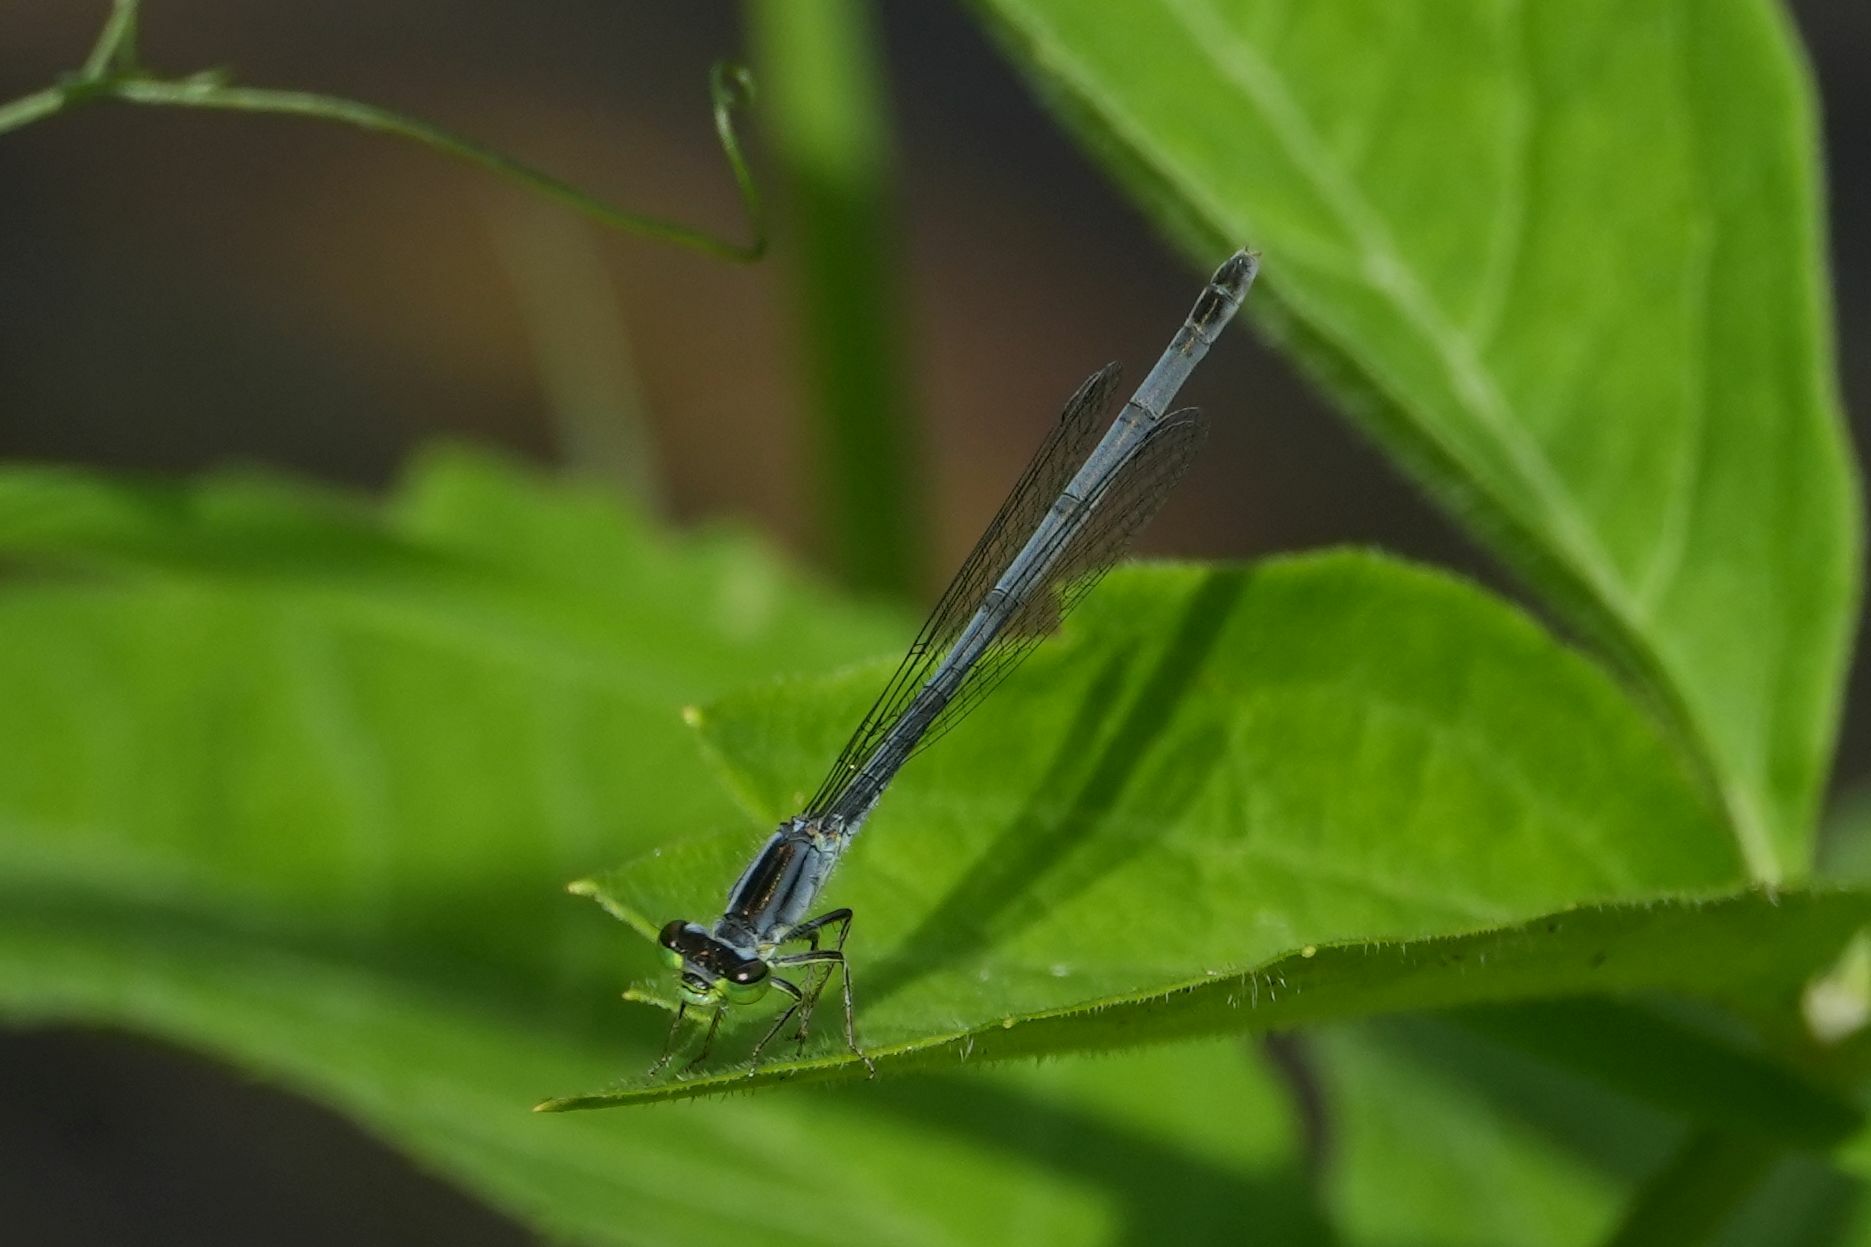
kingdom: Animalia
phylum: Arthropoda
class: Insecta
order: Odonata
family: Coenagrionidae
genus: Ischnura
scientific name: Ischnura verticalis
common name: Eastern forktail
